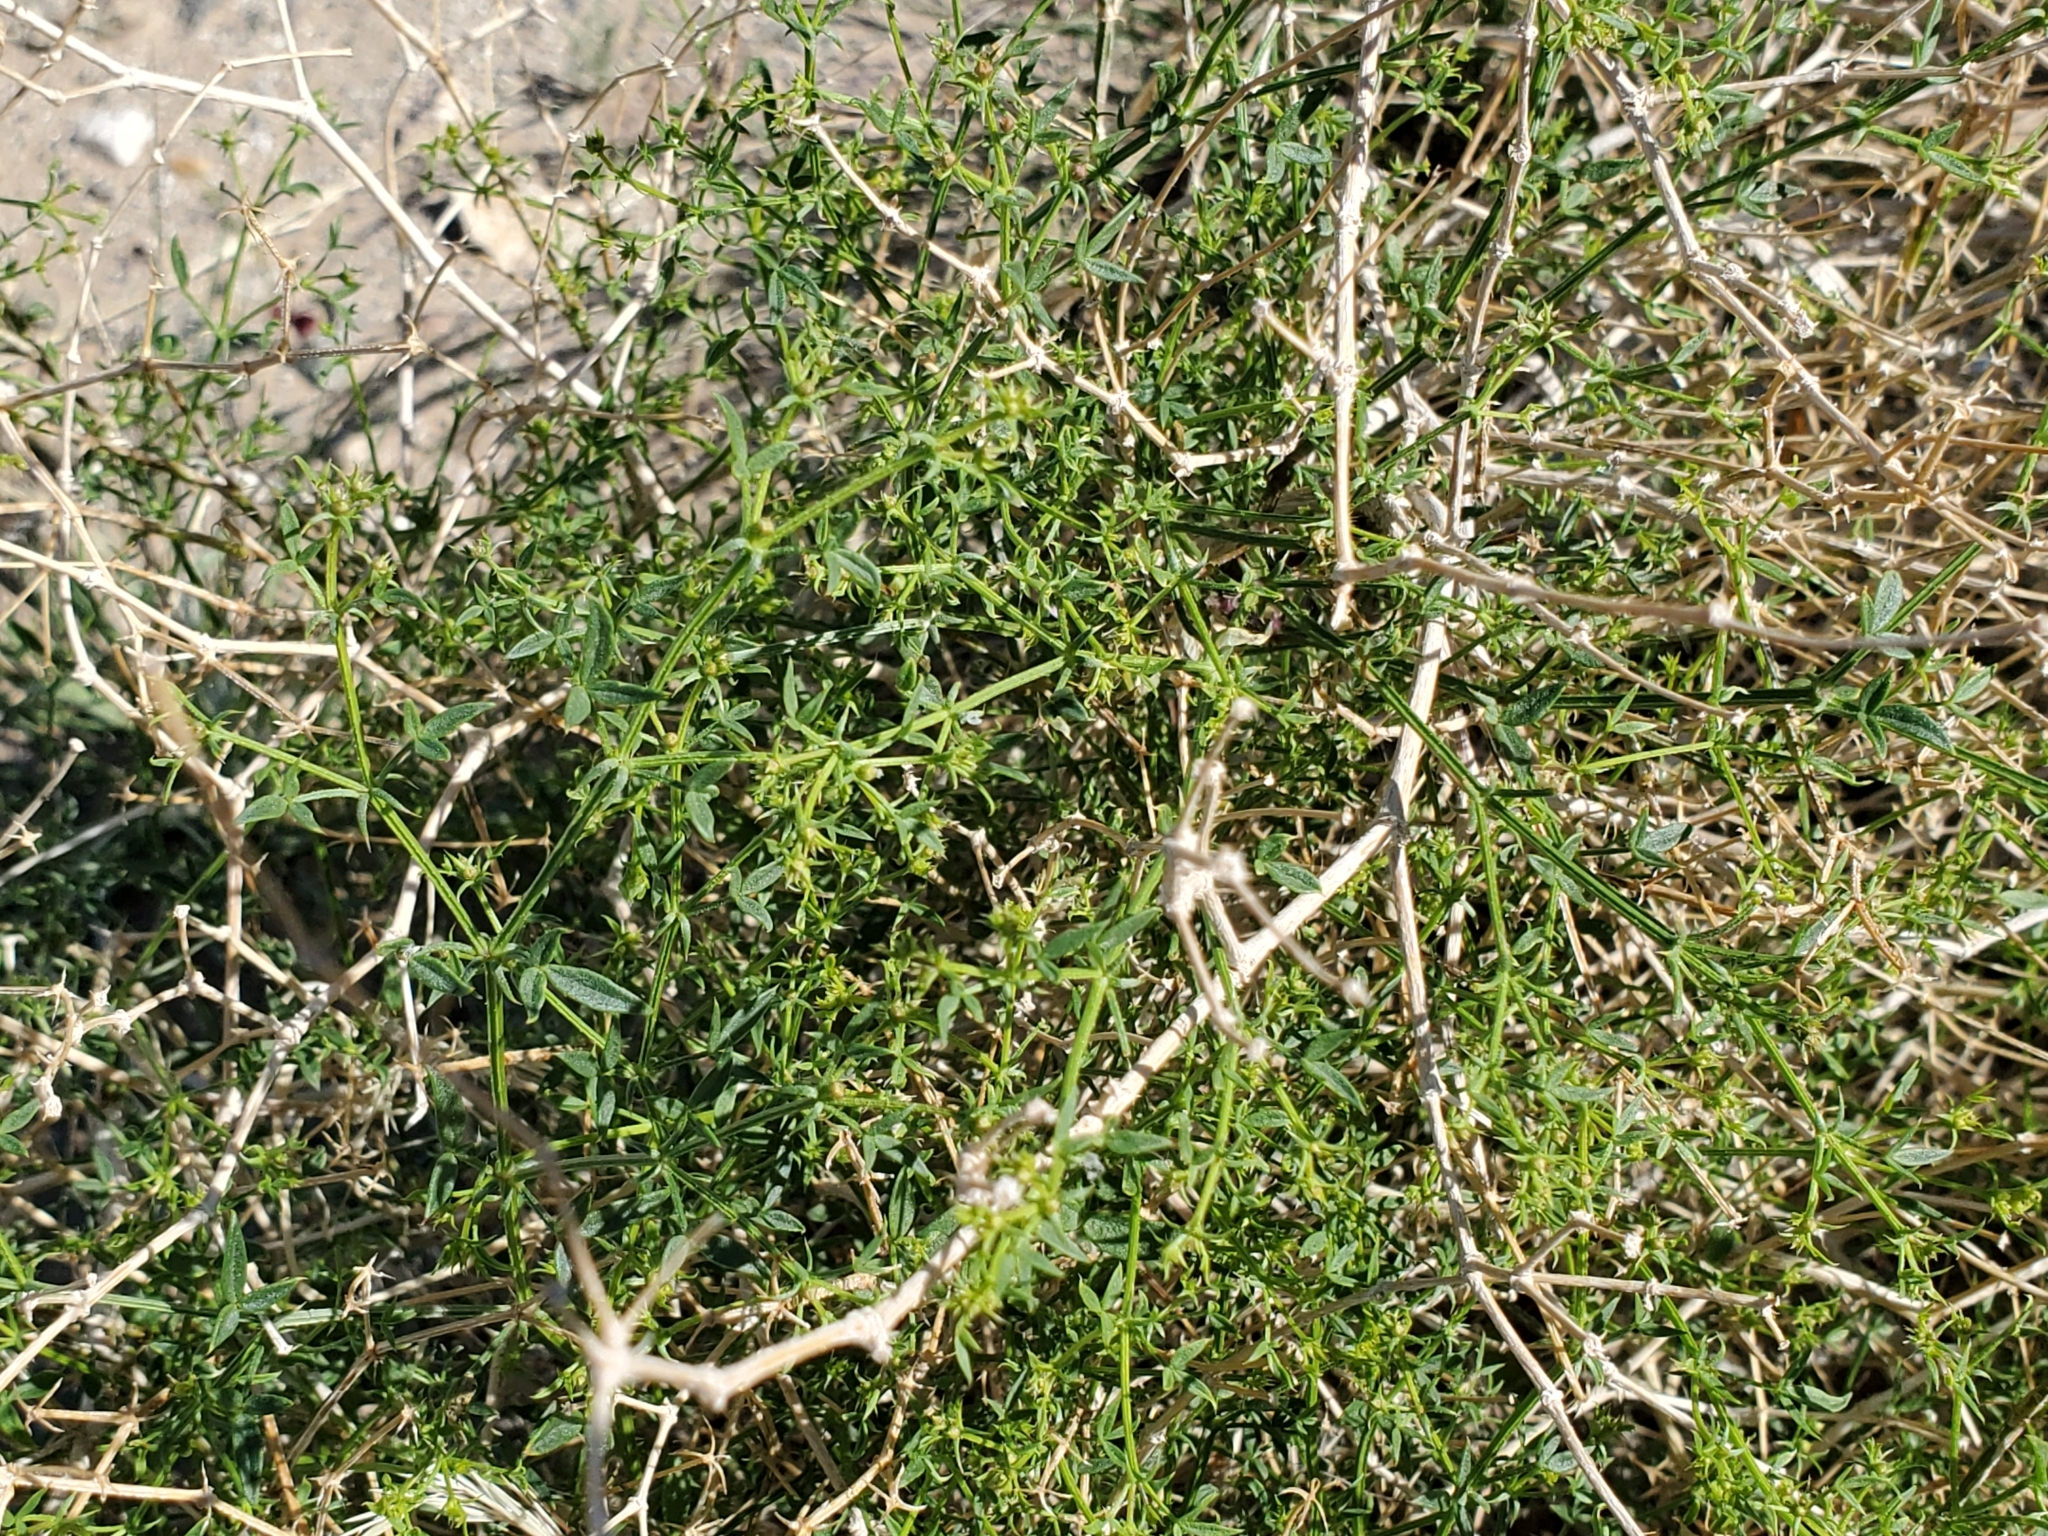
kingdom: Plantae
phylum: Tracheophyta
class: Magnoliopsida
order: Zygophyllales
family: Zygophyllaceae
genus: Fagonia
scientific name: Fagonia laevis
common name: California fagonbush
